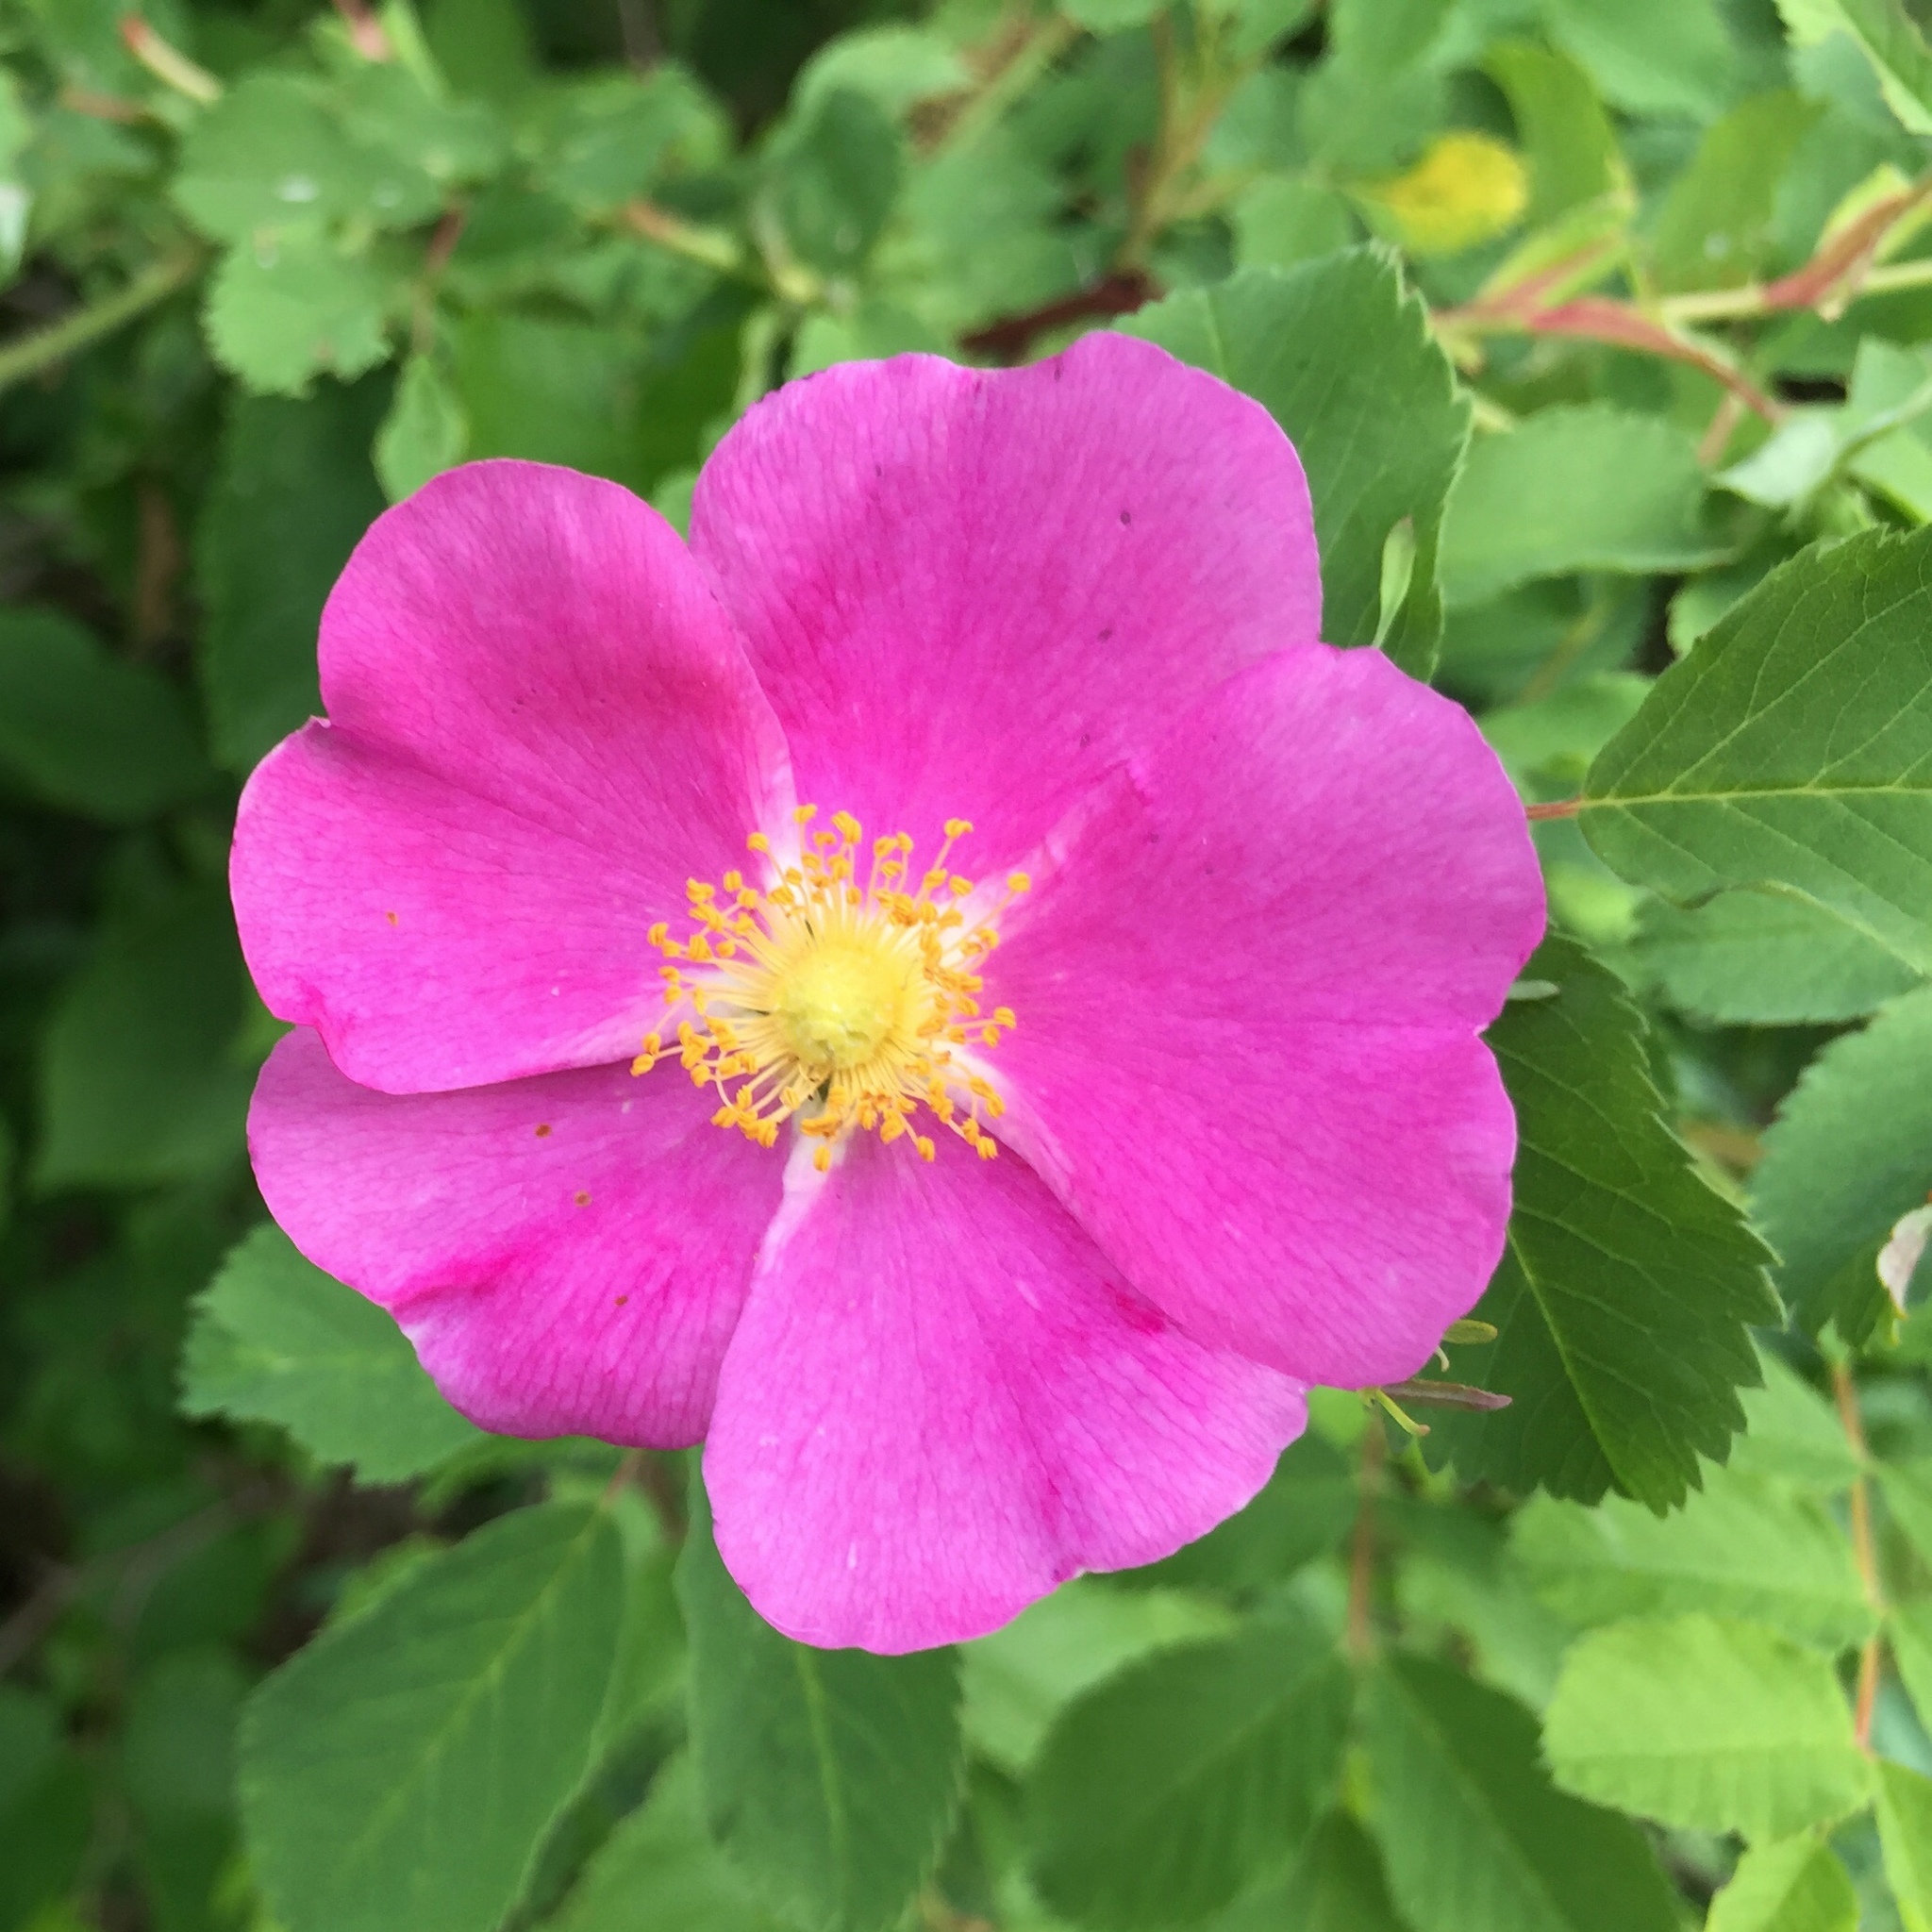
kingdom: Plantae
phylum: Tracheophyta
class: Magnoliopsida
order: Rosales
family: Rosaceae
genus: Rosa
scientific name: Rosa acicularis
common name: Prickly rose
